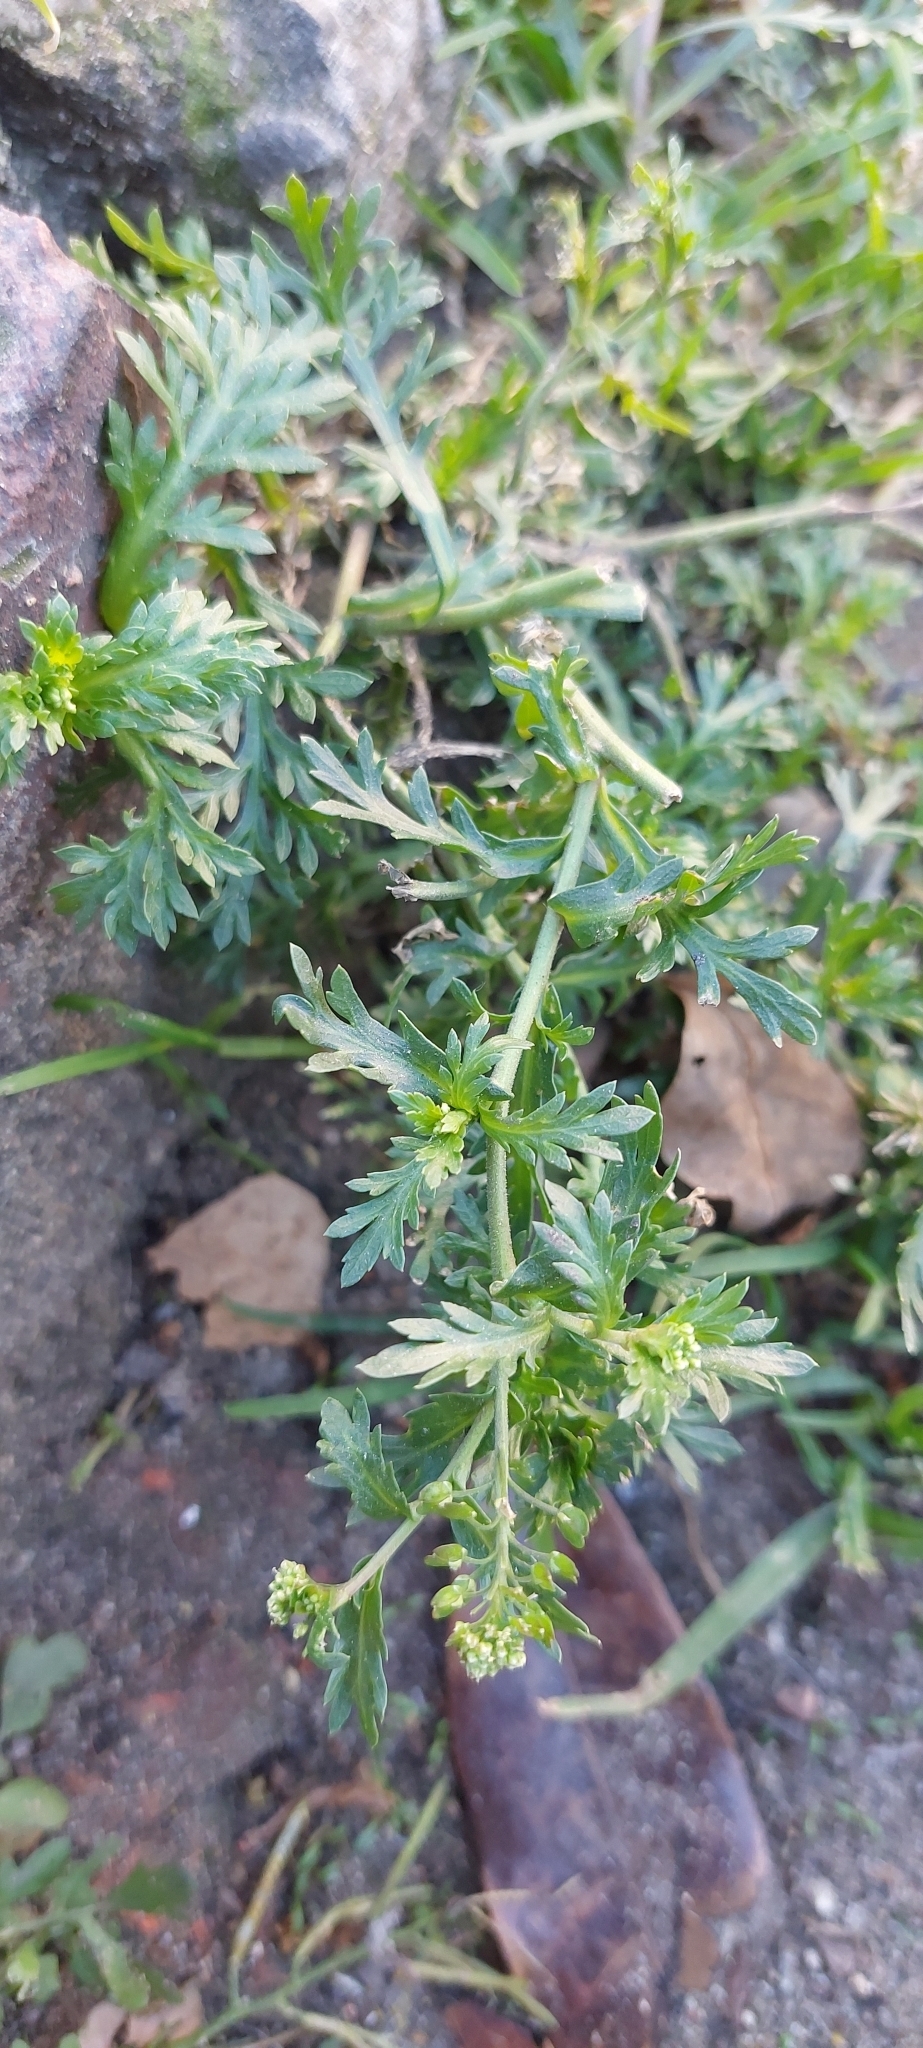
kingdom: Plantae
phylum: Tracheophyta
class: Magnoliopsida
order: Brassicales
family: Brassicaceae
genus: Lepidium
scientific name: Lepidium bipinnatifidum
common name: Wayside pepperwort
